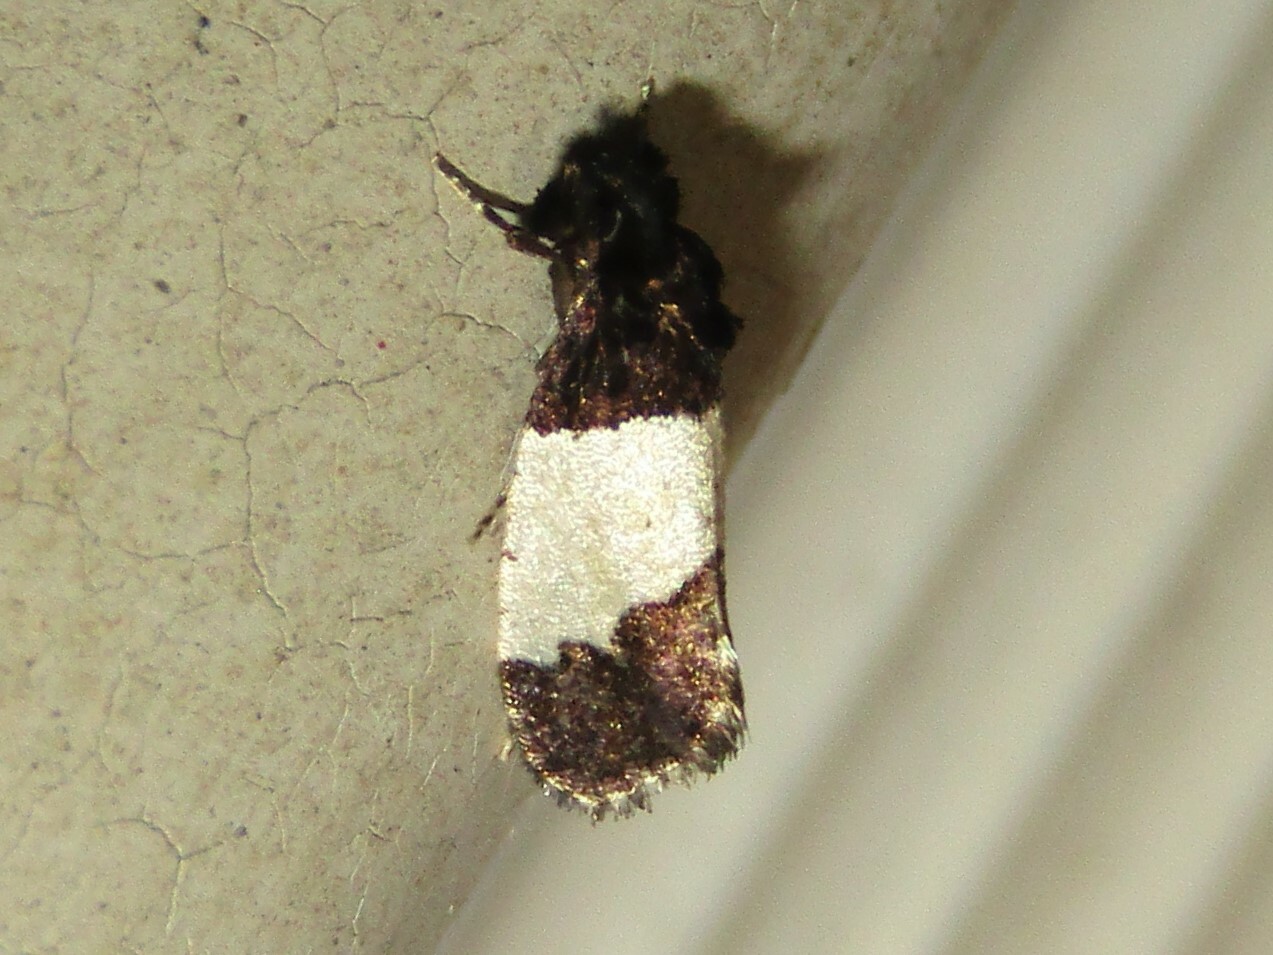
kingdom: Animalia
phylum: Arthropoda
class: Insecta
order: Lepidoptera
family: Psychidae
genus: Kearfottia
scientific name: Kearfottia albifasciella
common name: White-patched kearfottia
